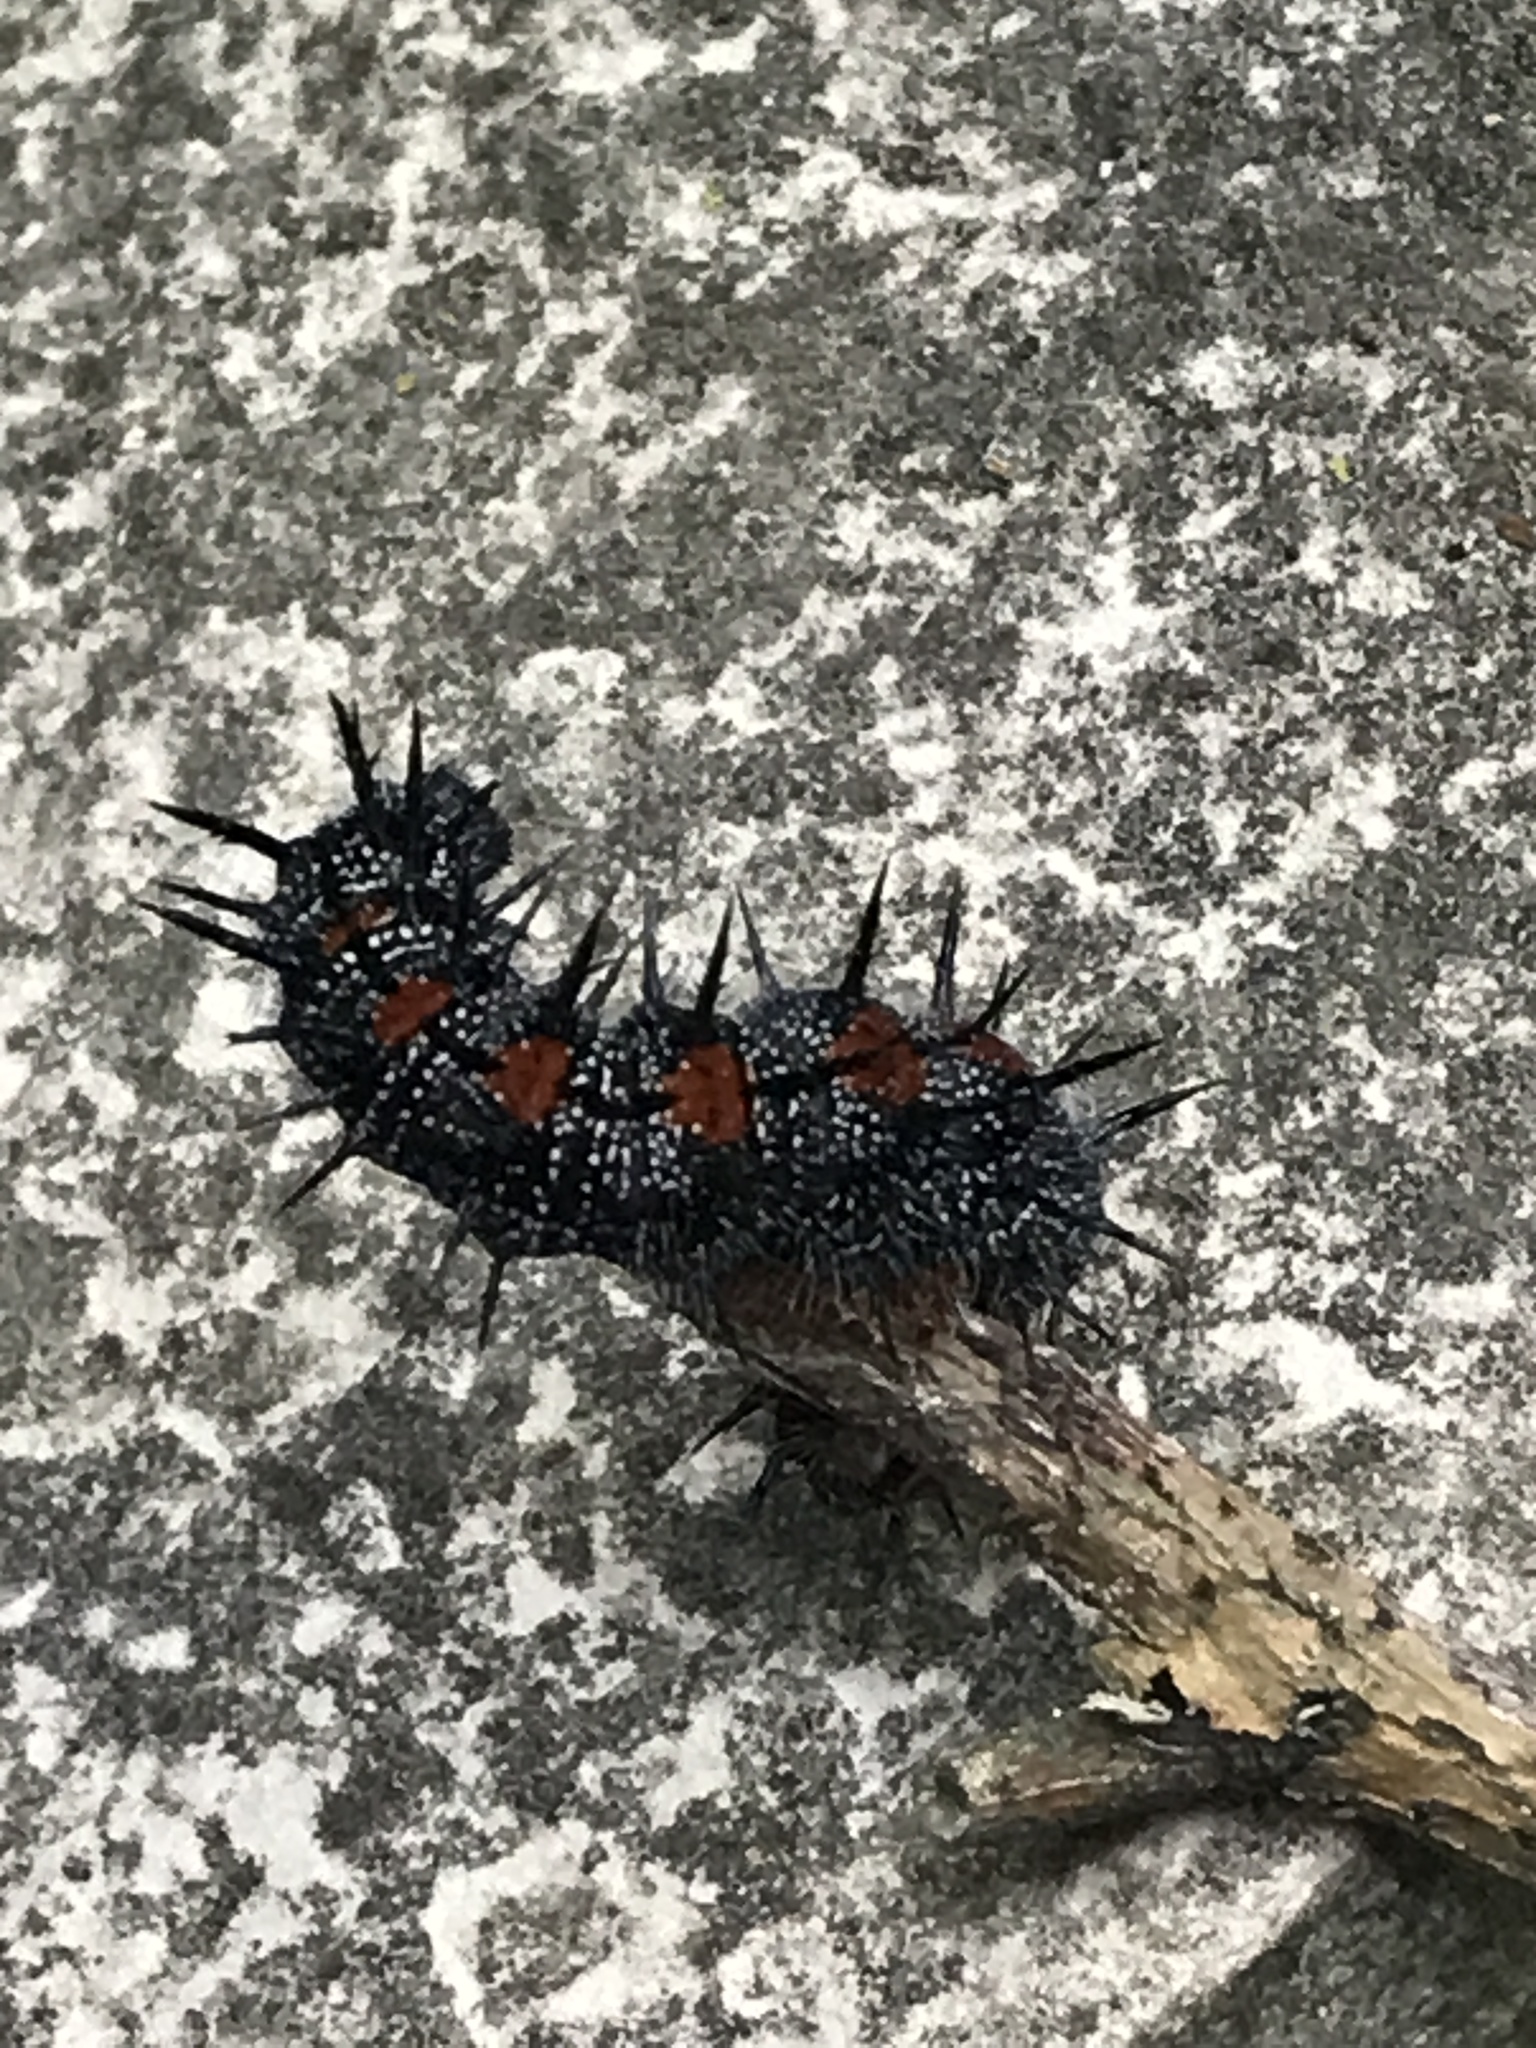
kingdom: Animalia
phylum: Arthropoda
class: Insecta
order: Lepidoptera
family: Nymphalidae
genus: Nymphalis
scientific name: Nymphalis antiopa
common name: Camberwell beauty
